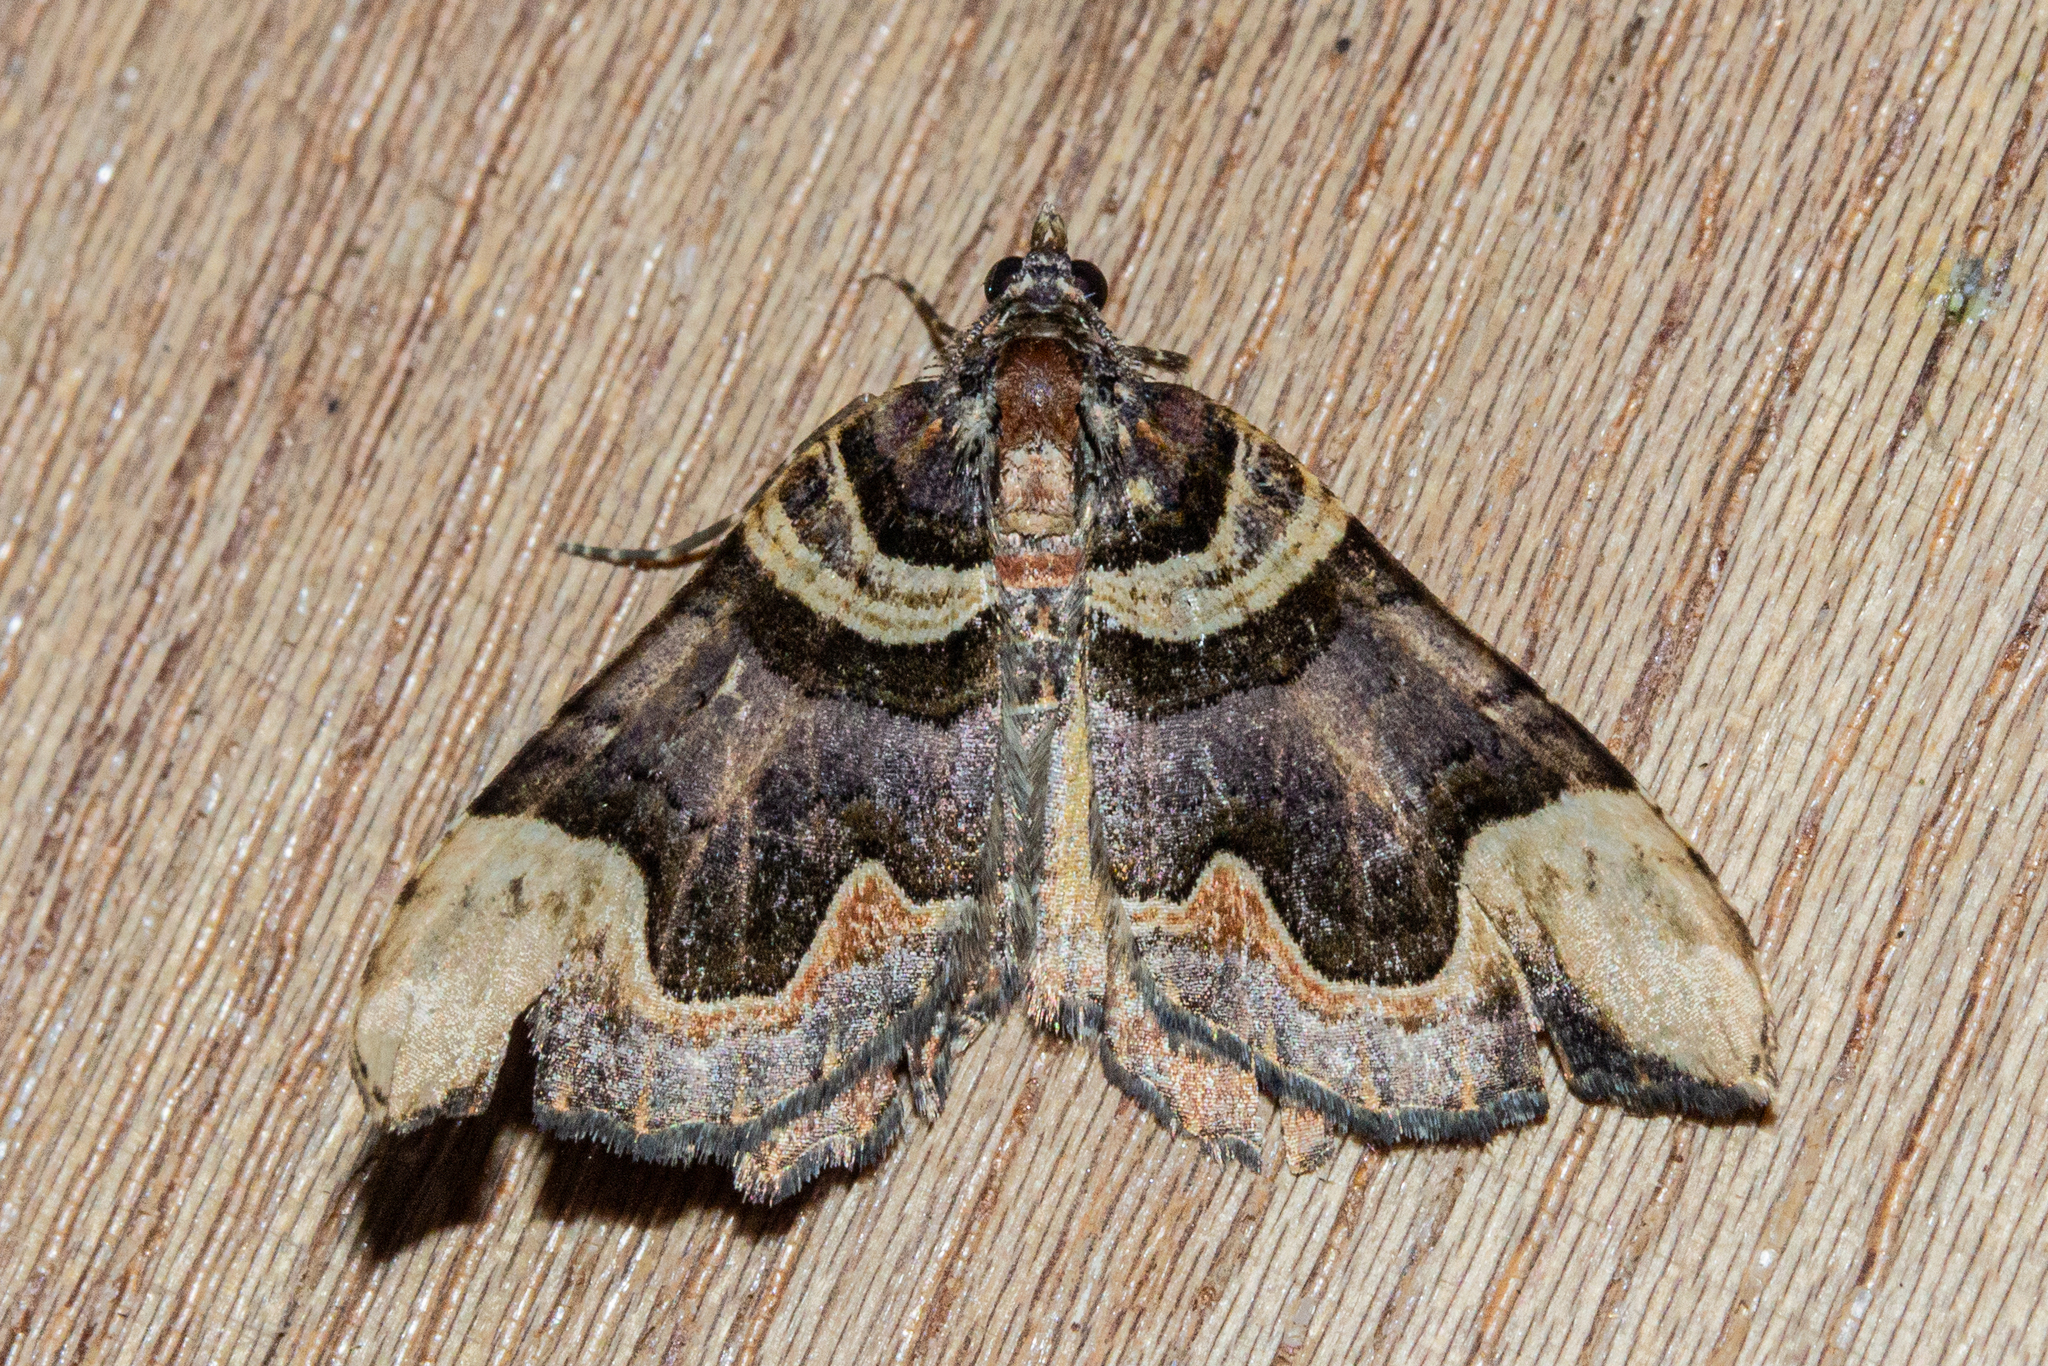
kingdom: Animalia
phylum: Arthropoda
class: Insecta
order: Lepidoptera
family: Geometridae
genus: Asaphodes
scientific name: Asaphodes chlamydota
